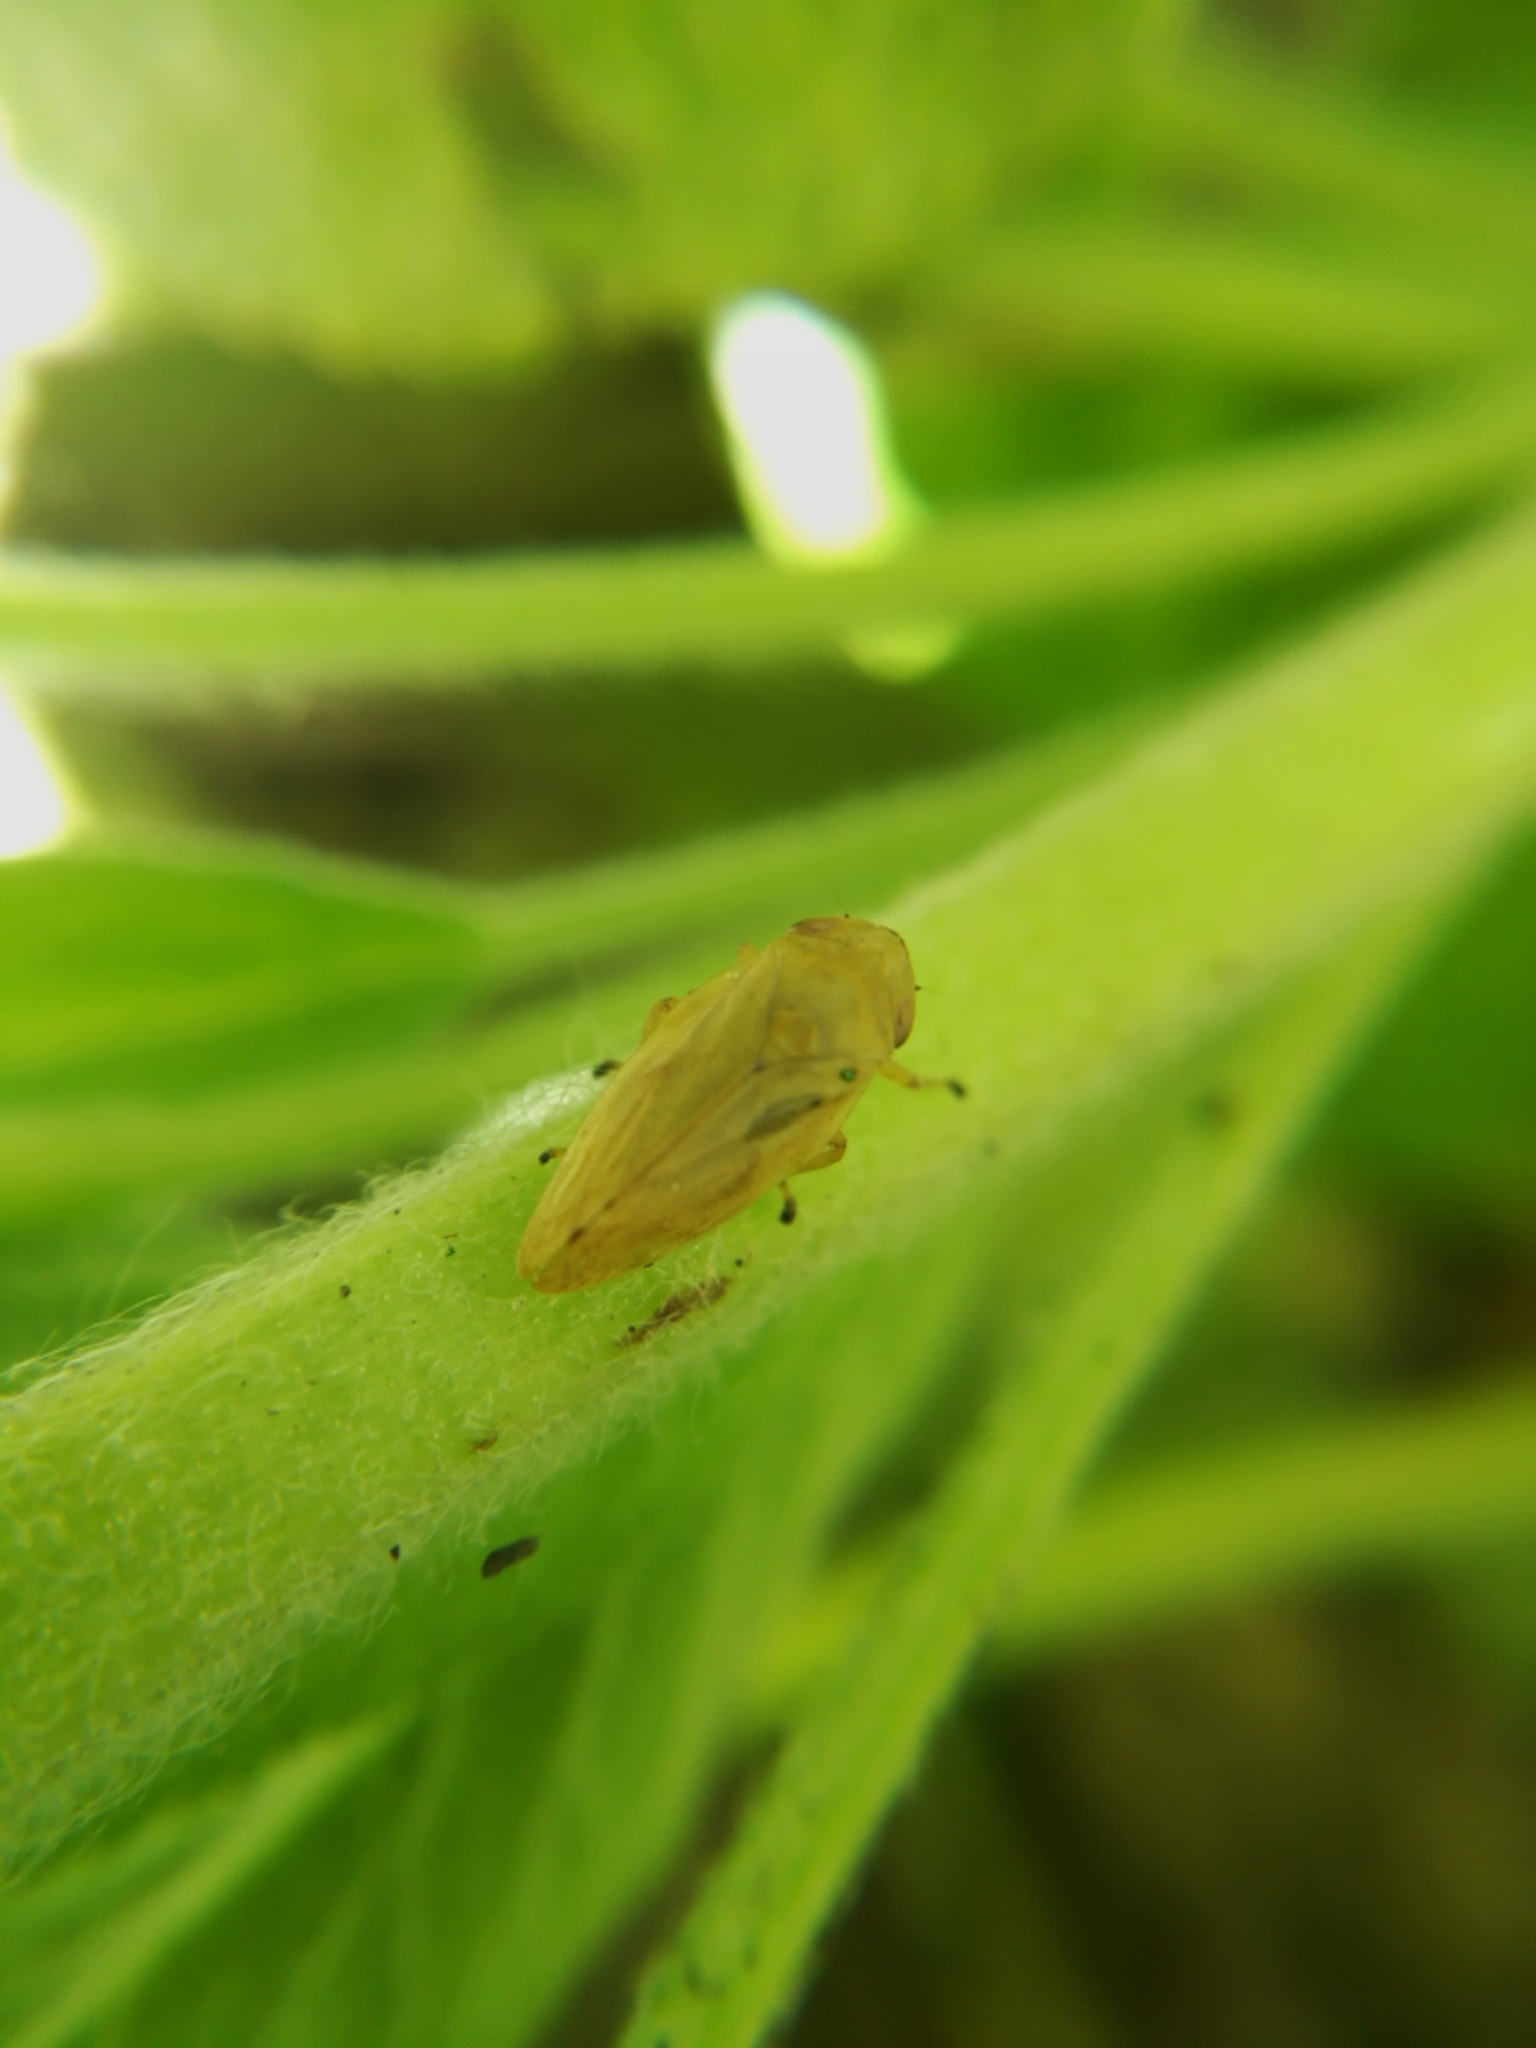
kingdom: Animalia
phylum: Arthropoda
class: Insecta
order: Hemiptera
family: Aphrophoridae
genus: Philaenus
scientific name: Philaenus spumarius
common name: Meadow spittlebug
